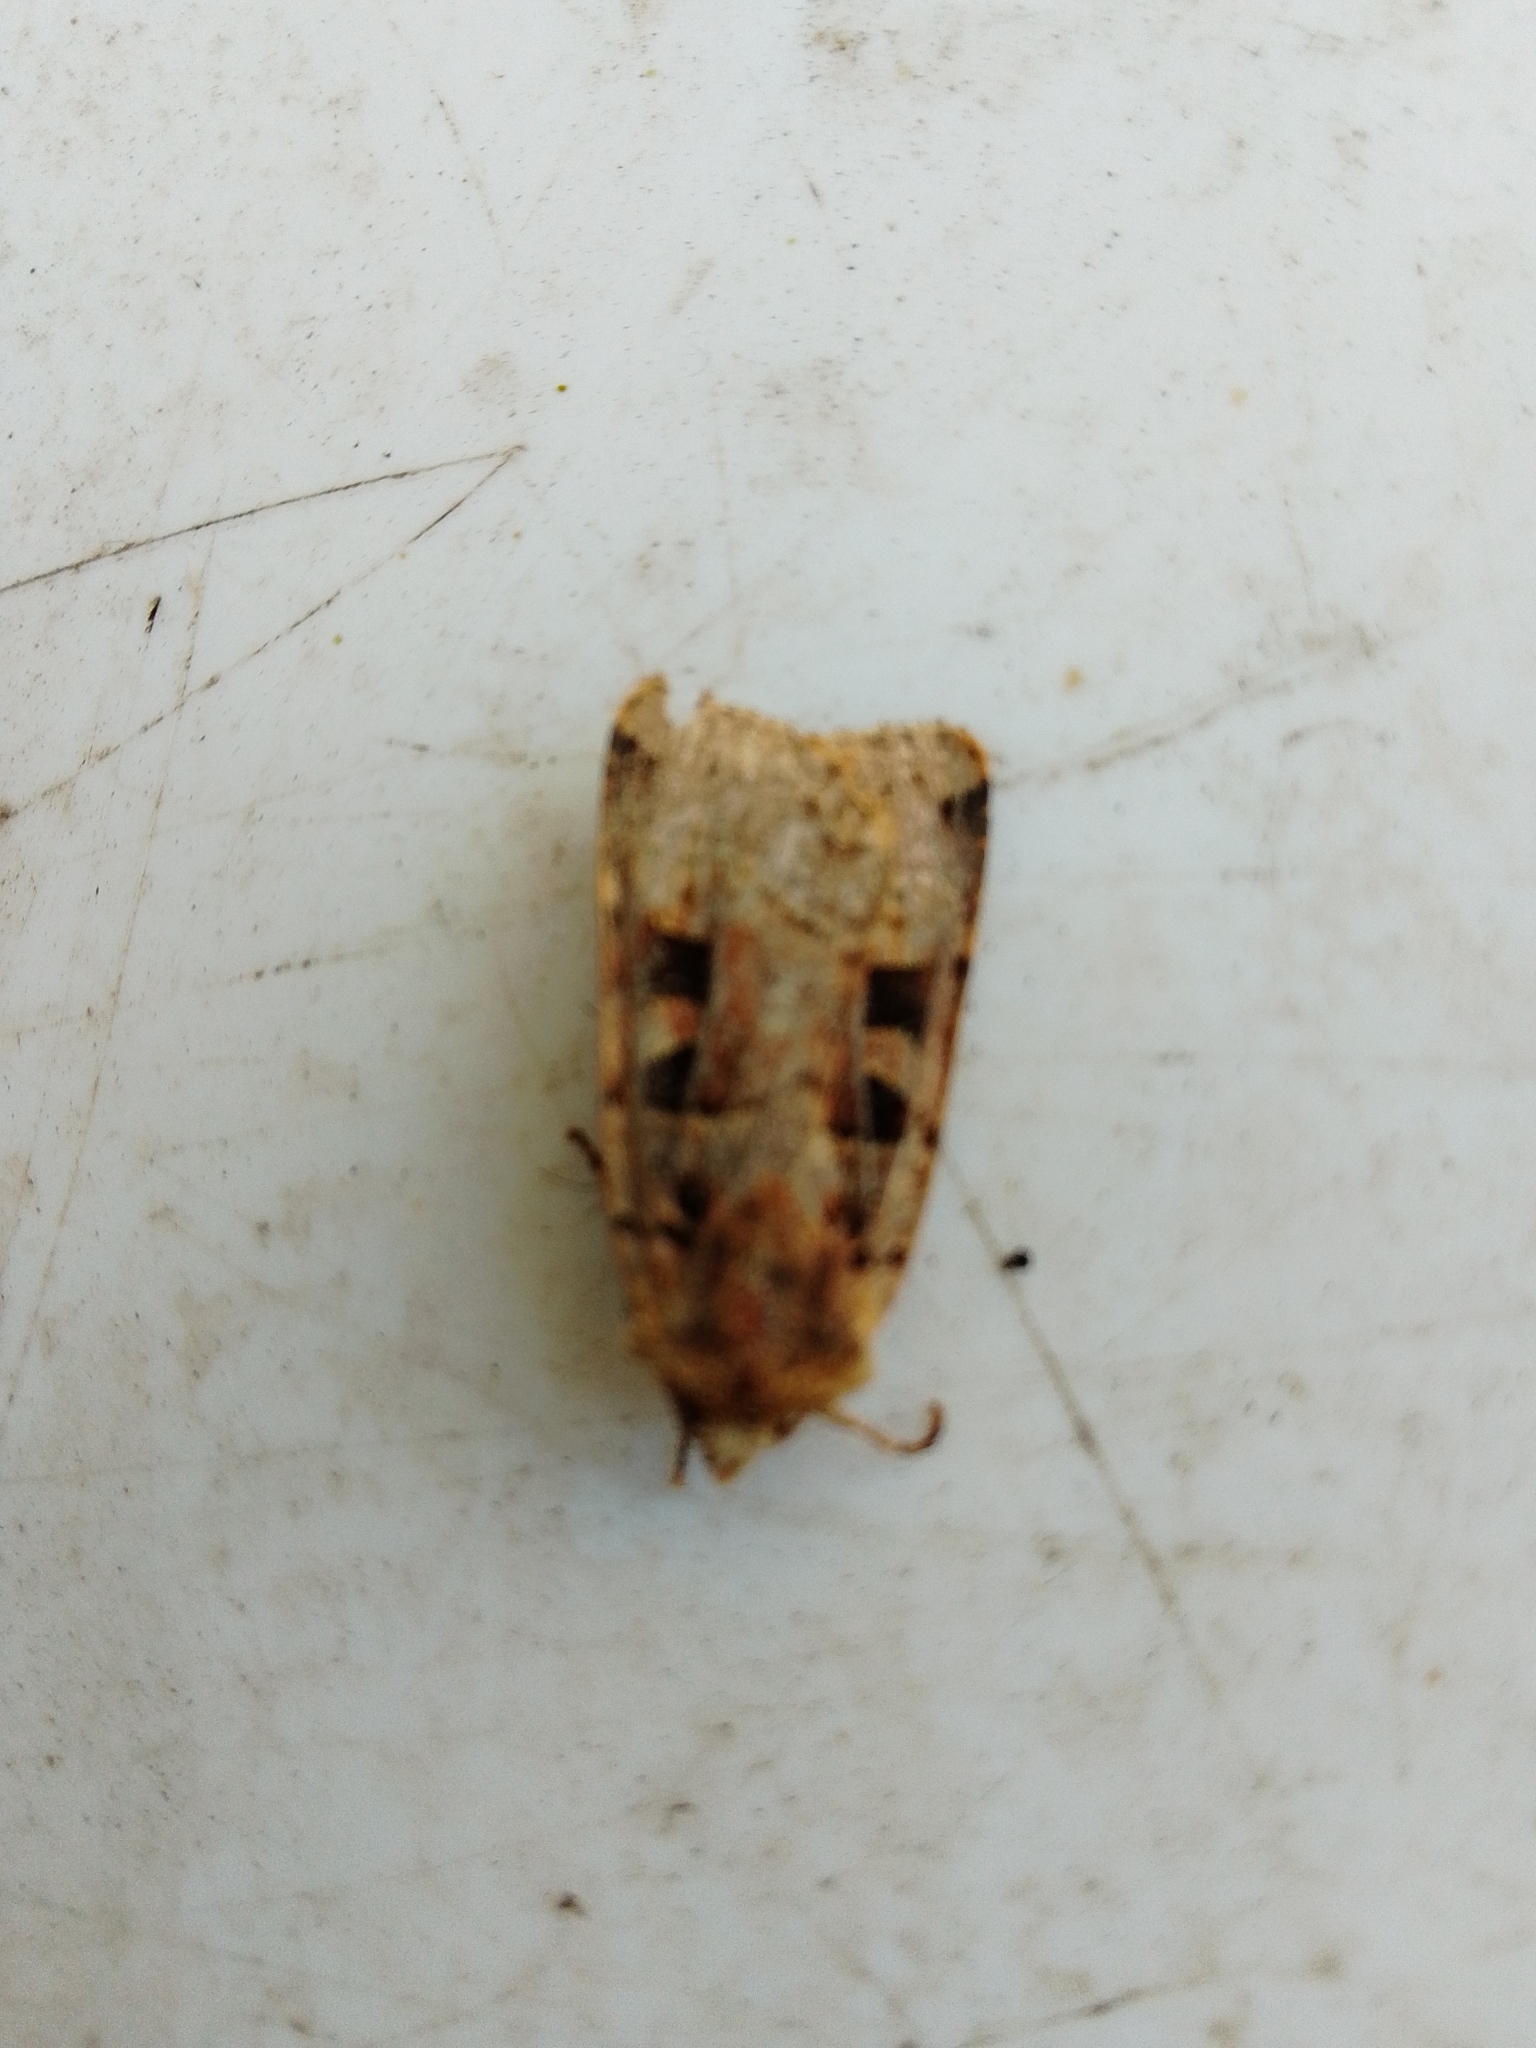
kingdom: Animalia
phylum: Arthropoda
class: Insecta
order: Lepidoptera
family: Noctuidae
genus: Xestia
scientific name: Xestia triangulum
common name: Double square-spot
